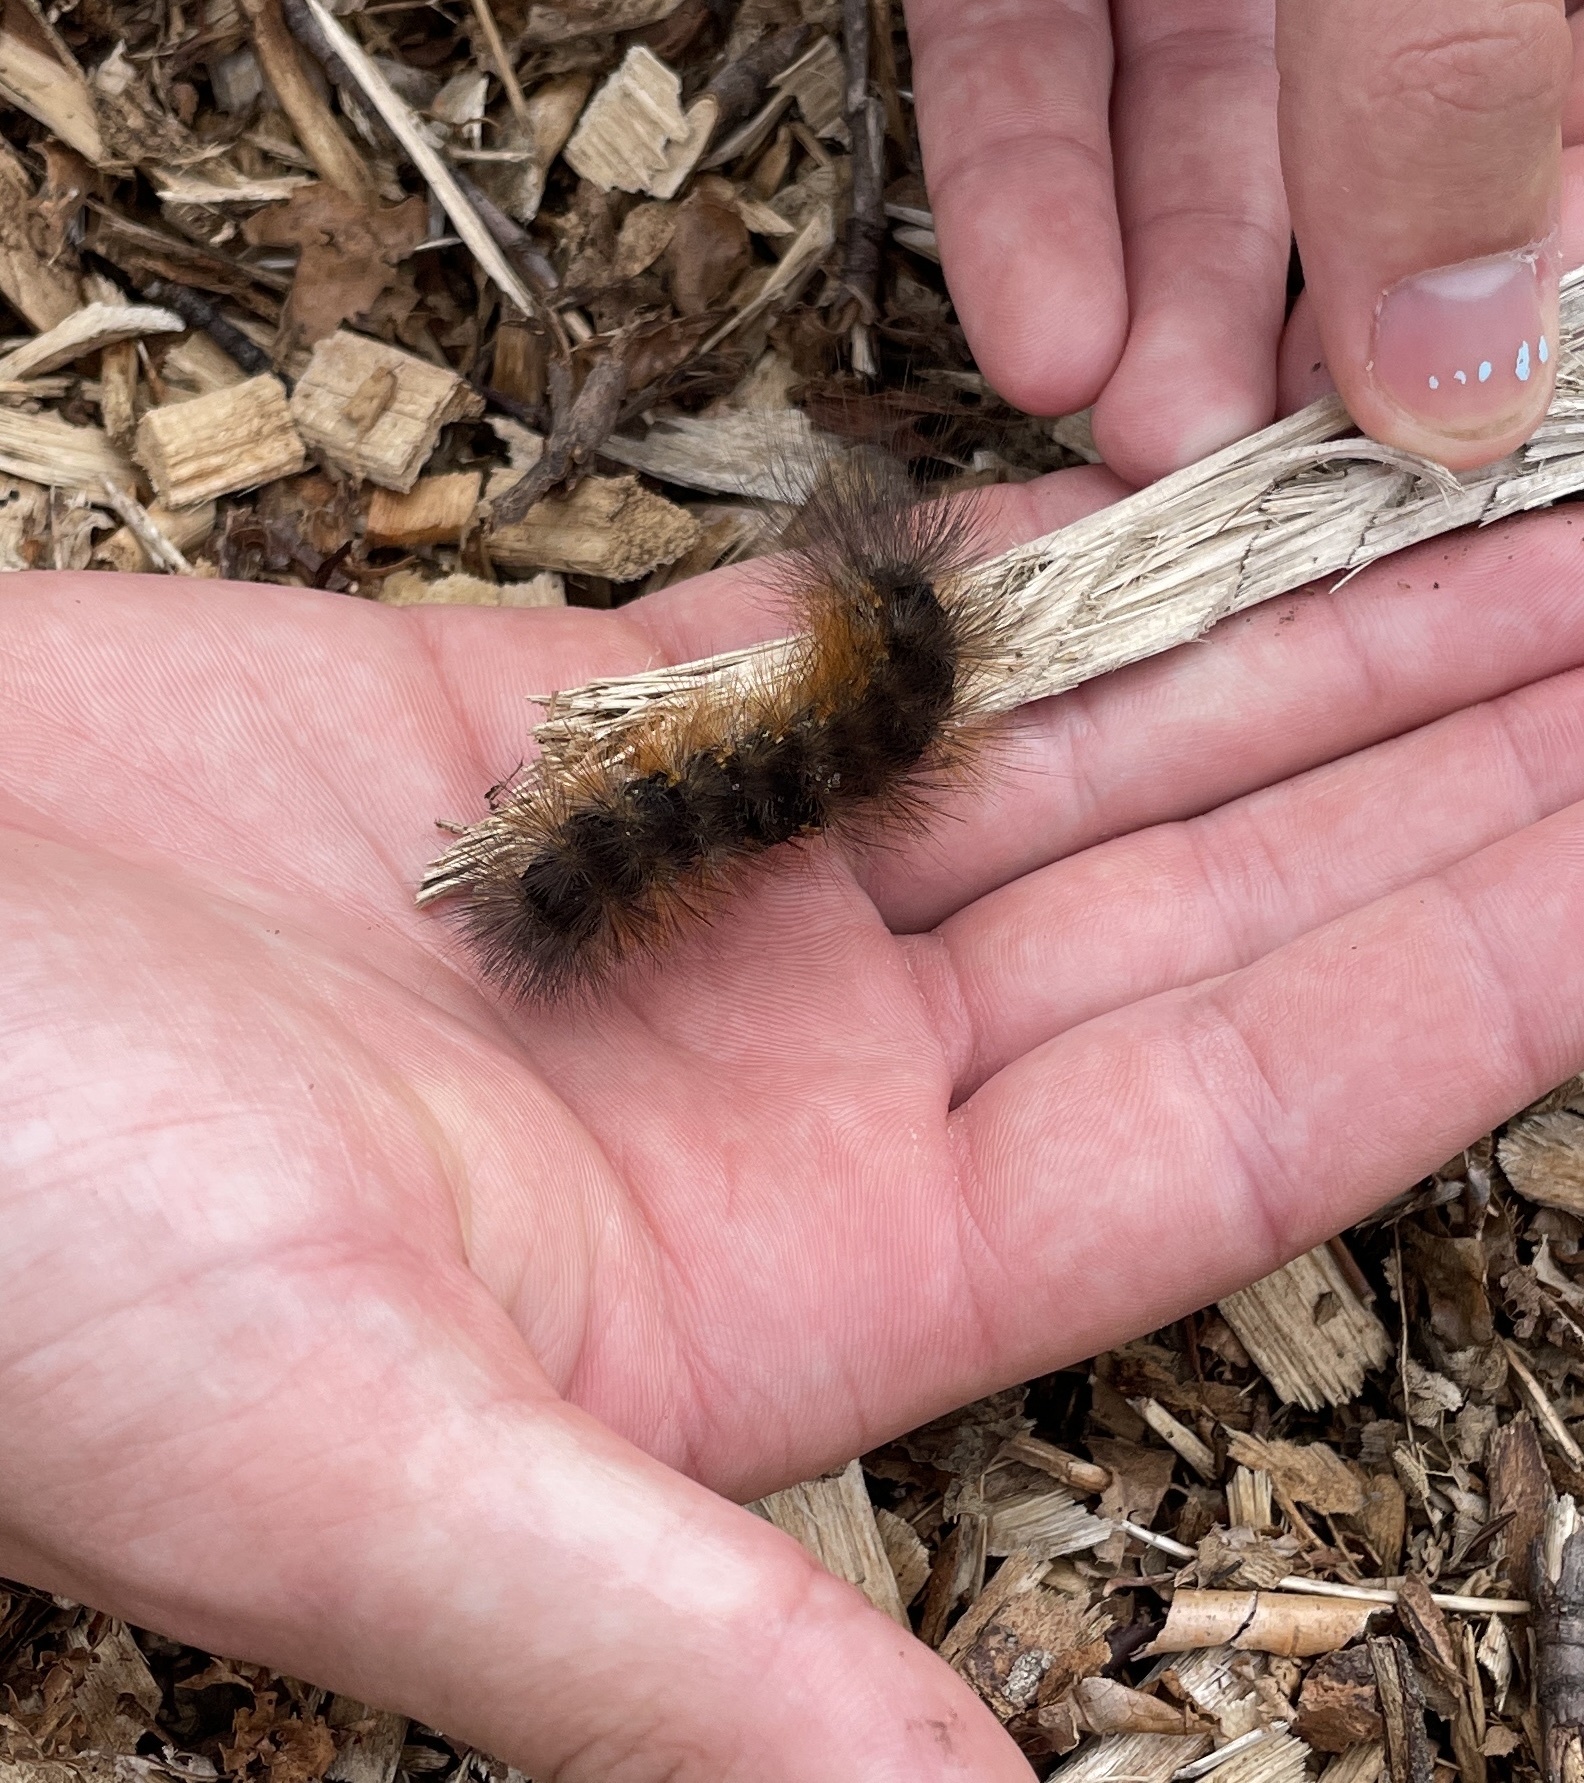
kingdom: Animalia
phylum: Arthropoda
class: Insecta
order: Lepidoptera
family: Erebidae
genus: Estigmene
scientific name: Estigmene acrea
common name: Salt marsh moth
